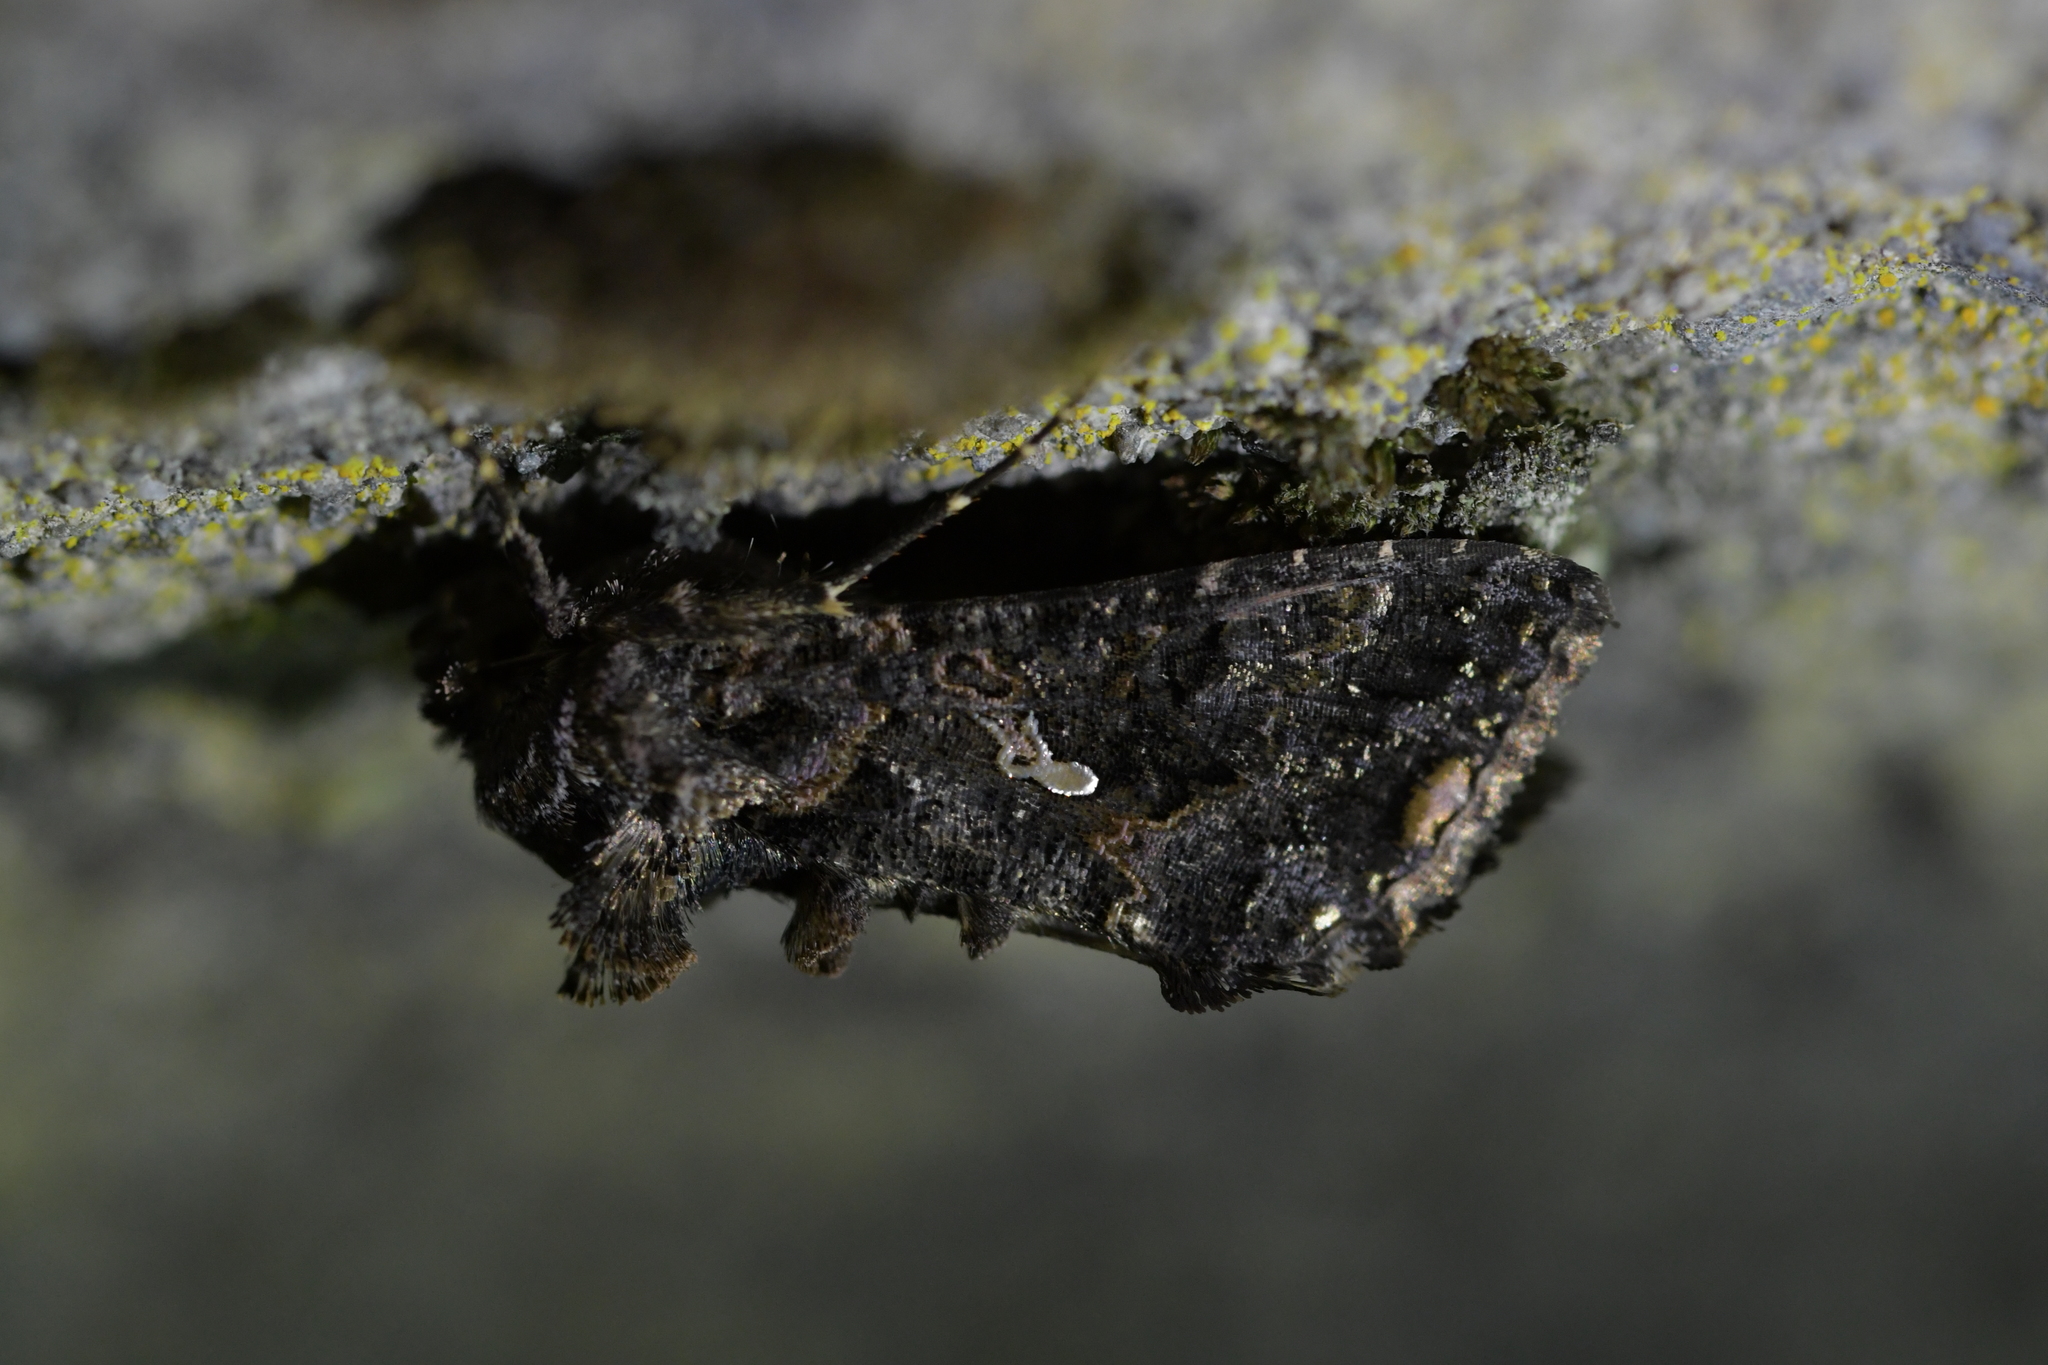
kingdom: Animalia
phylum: Arthropoda
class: Insecta
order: Lepidoptera
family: Noctuidae
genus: Ctenoplusia
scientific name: Ctenoplusia limbirena
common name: Scar bank gem
